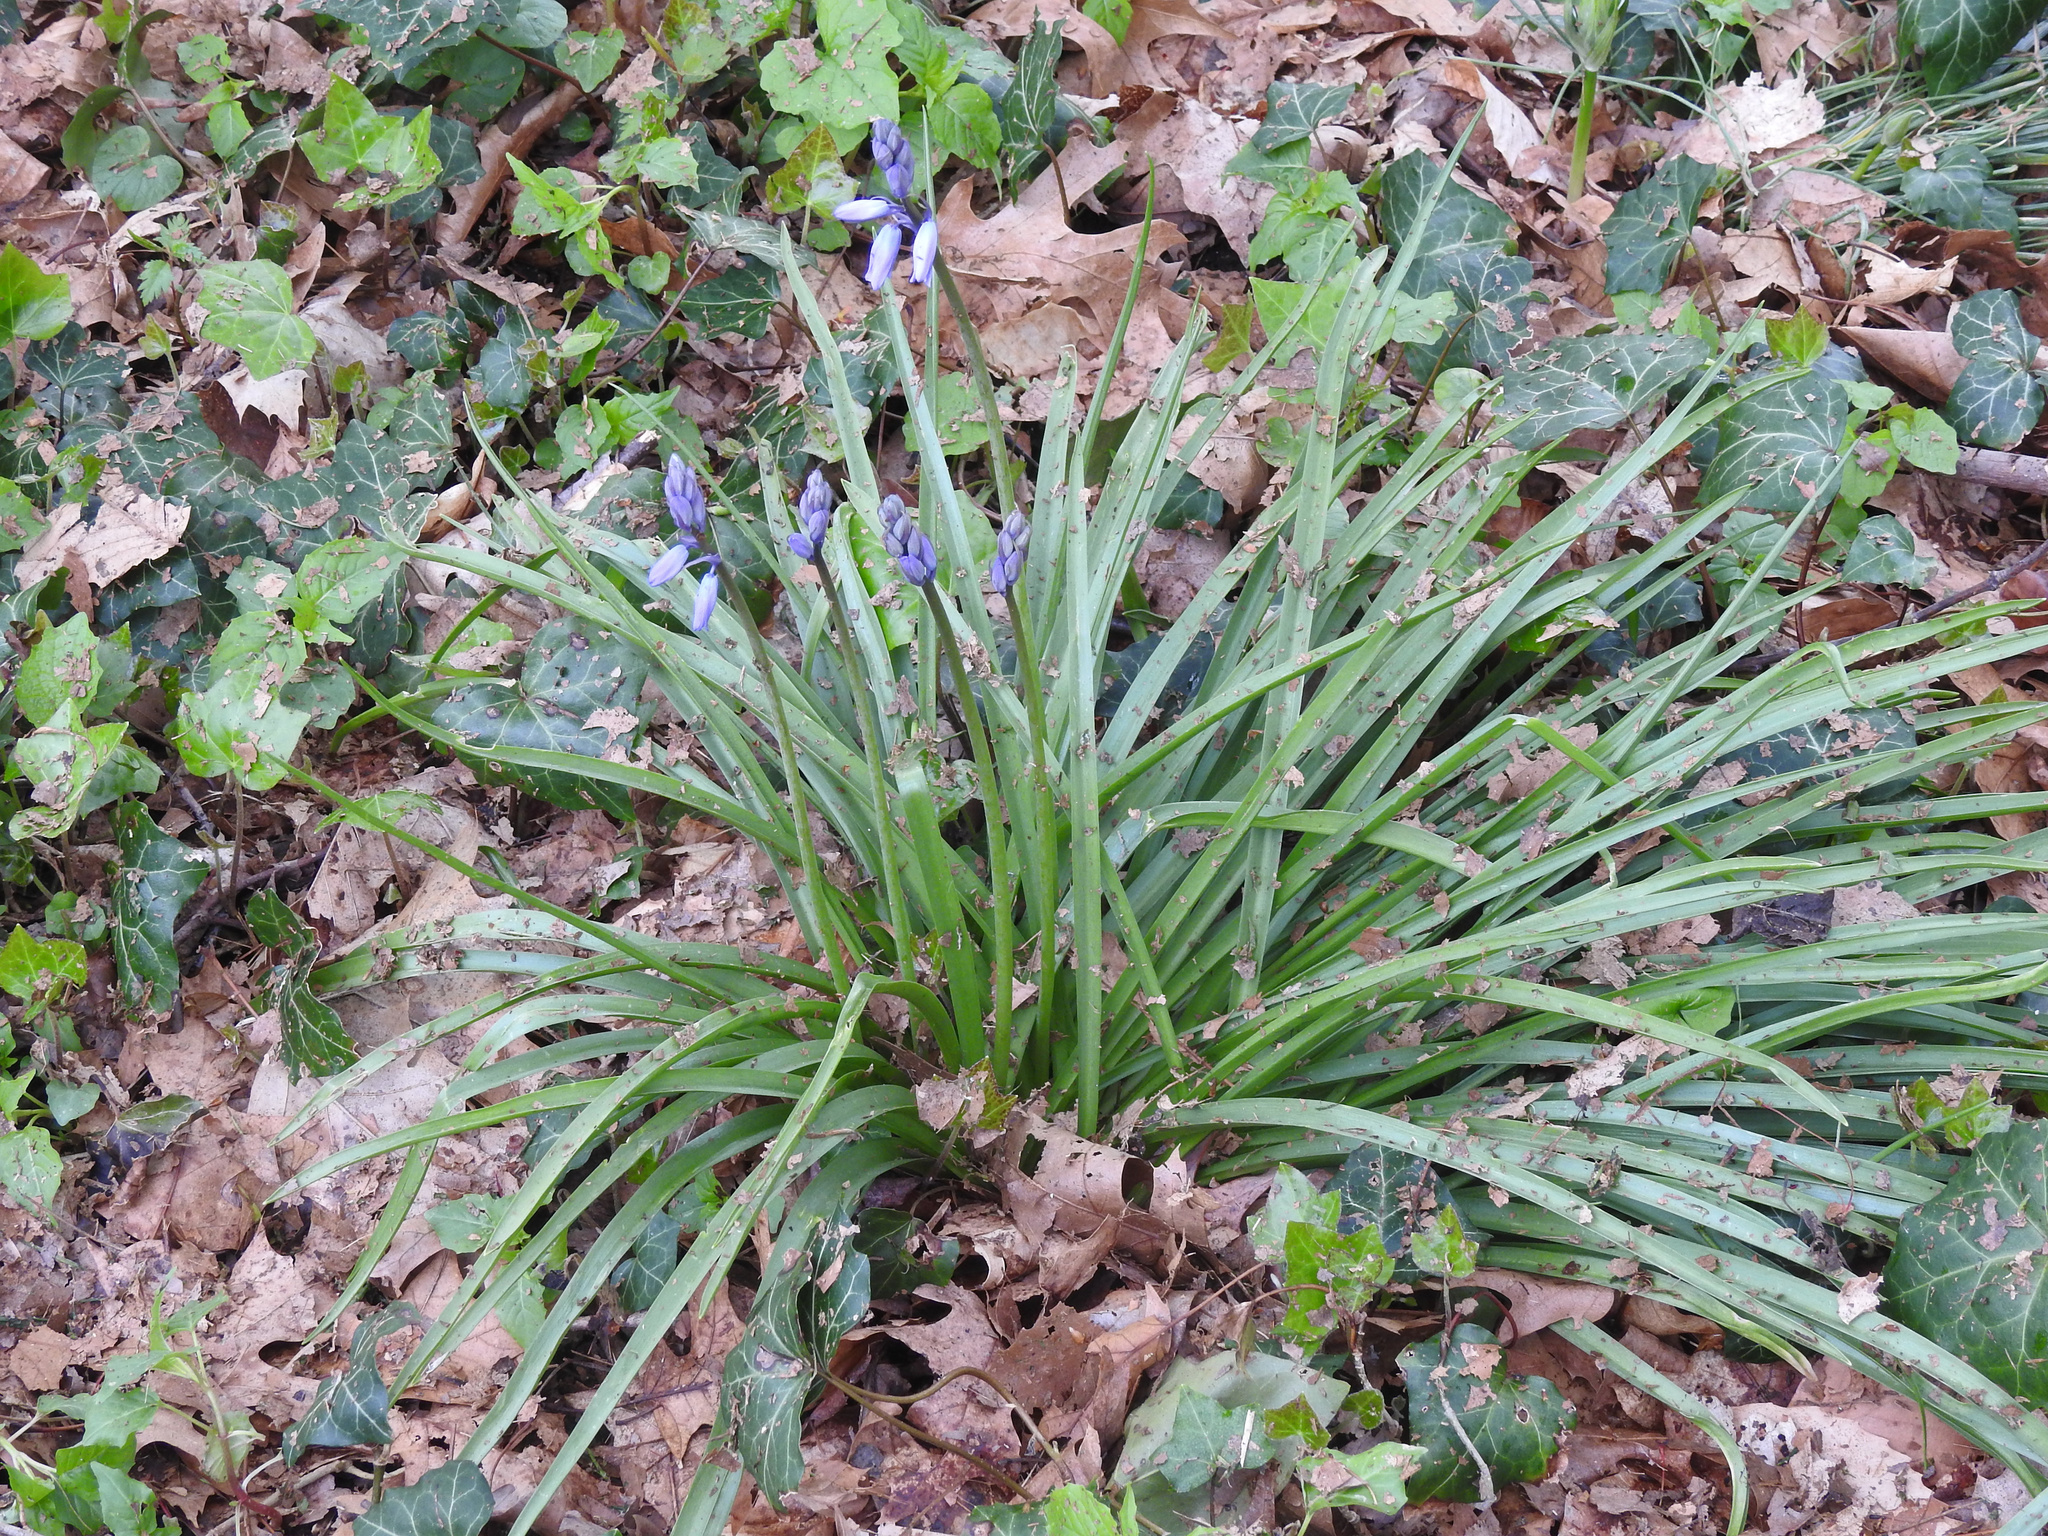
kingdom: Plantae
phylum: Tracheophyta
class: Liliopsida
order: Asparagales
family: Asparagaceae
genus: Hyacinthoides
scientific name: Hyacinthoides massartiana
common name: Hyacinthoides
